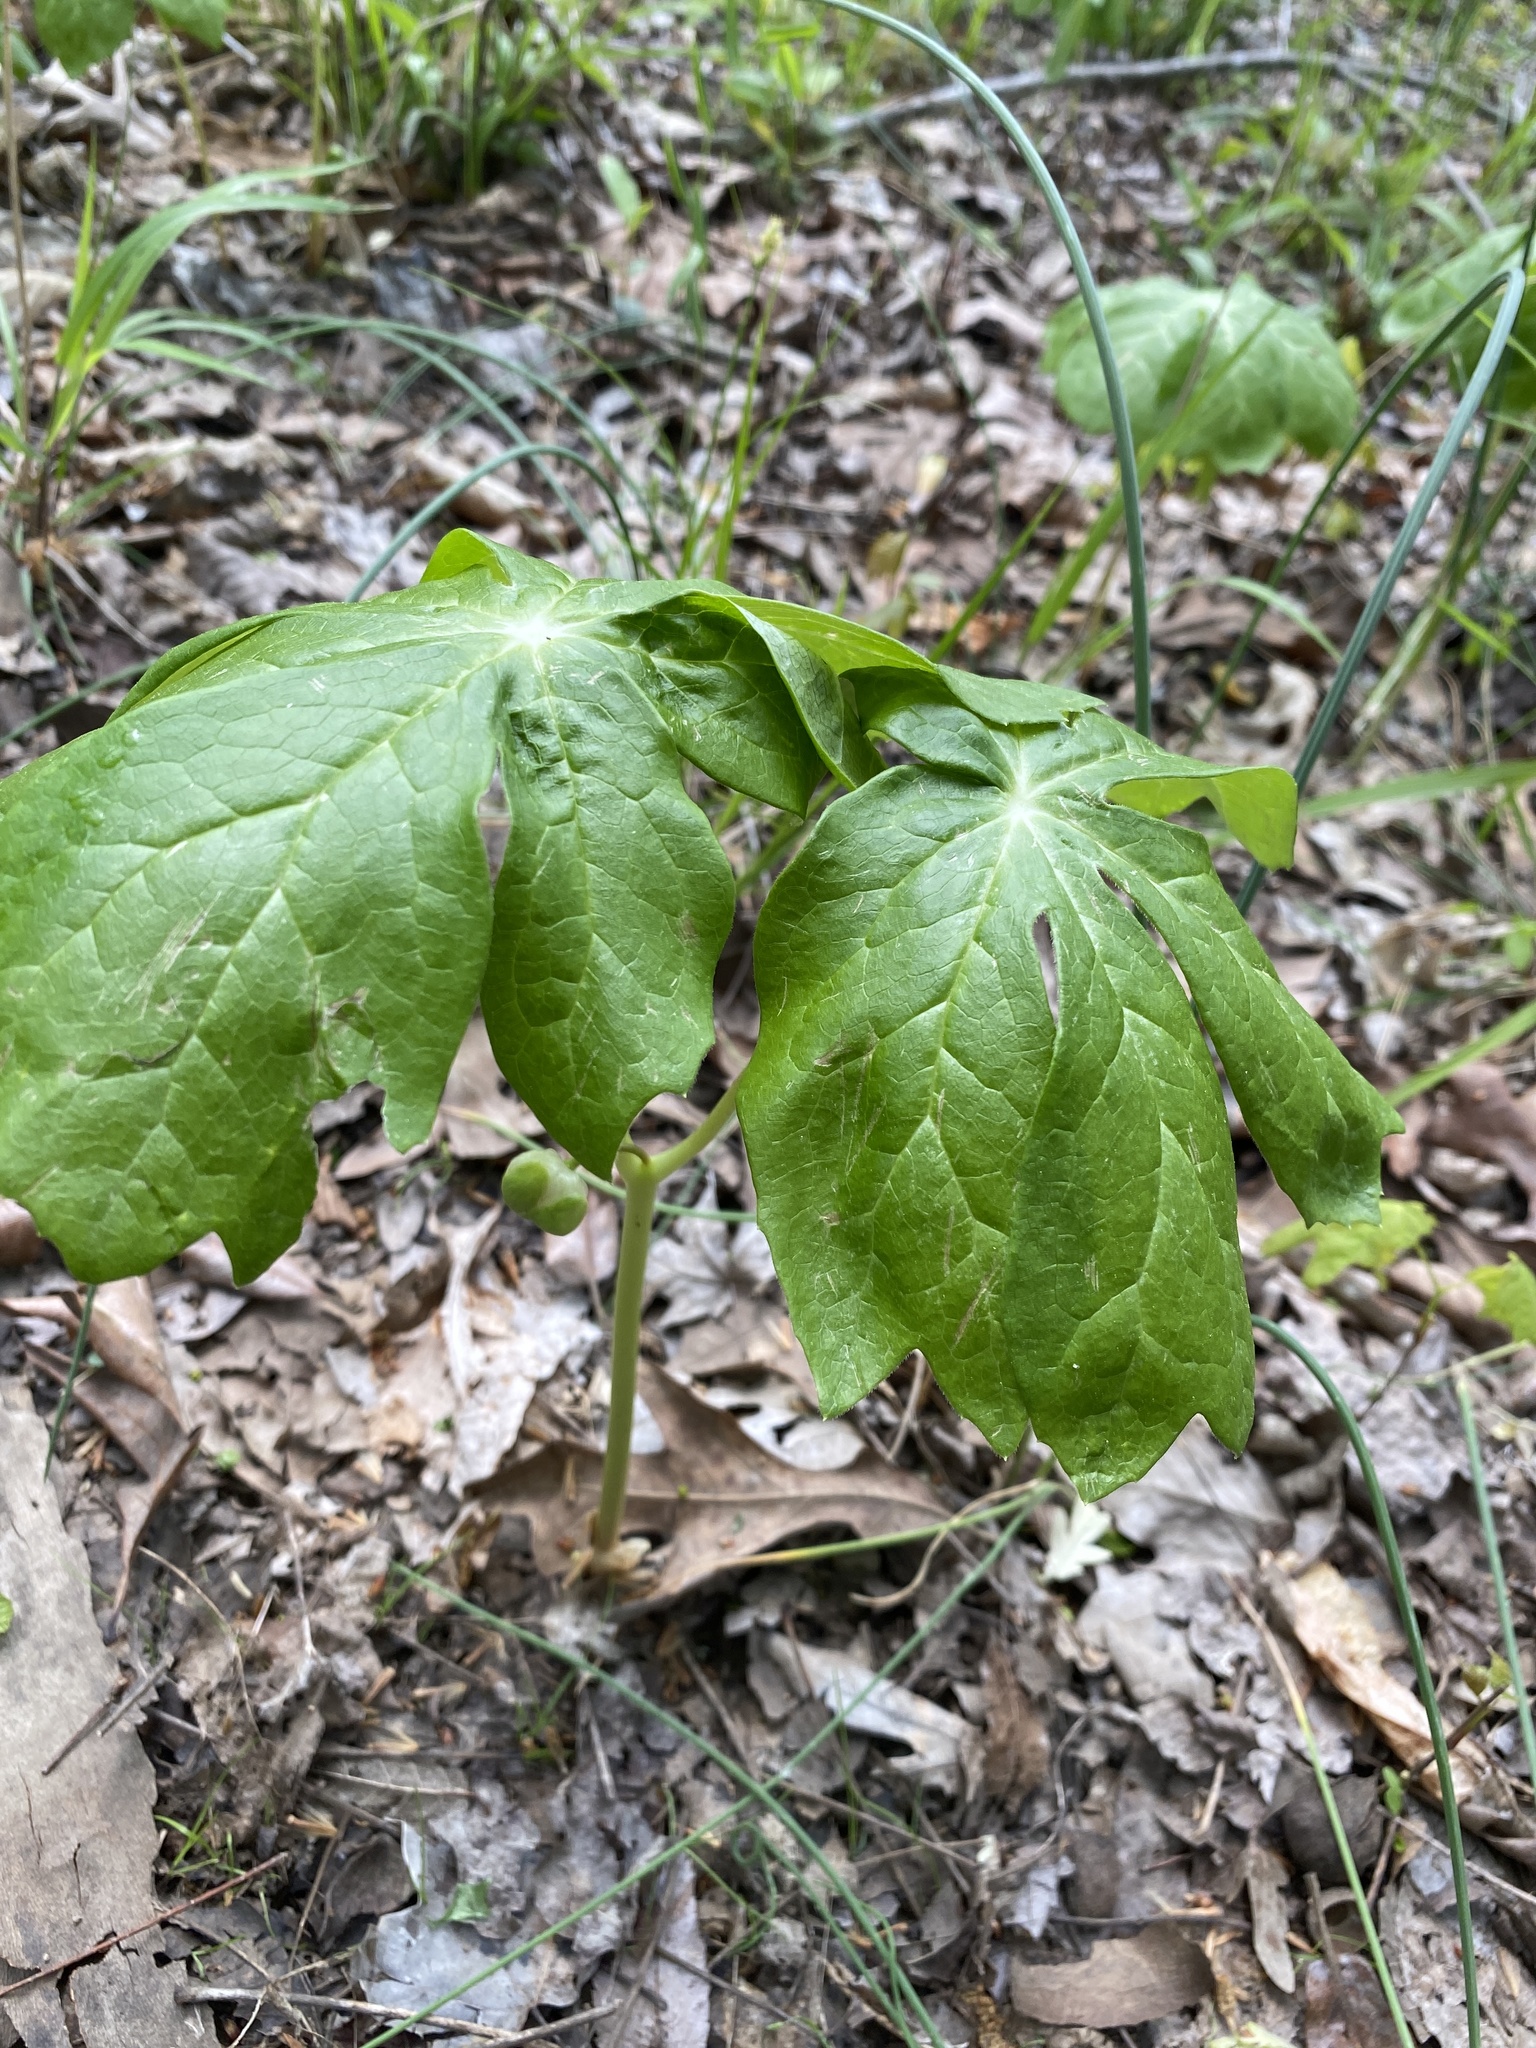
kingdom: Plantae
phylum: Tracheophyta
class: Magnoliopsida
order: Ranunculales
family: Berberidaceae
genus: Podophyllum
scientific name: Podophyllum peltatum
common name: Wild mandrake
